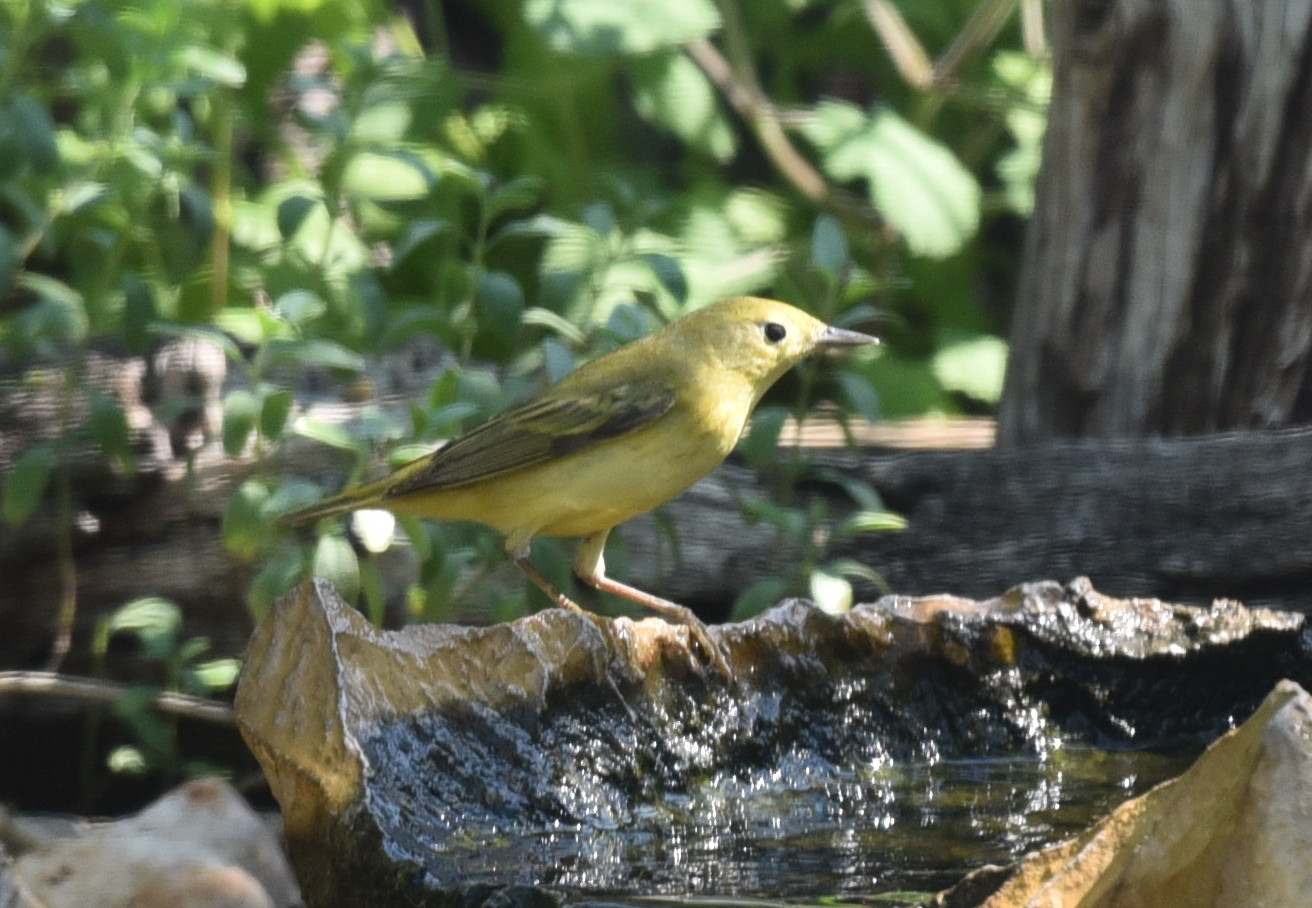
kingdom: Animalia
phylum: Chordata
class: Aves
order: Passeriformes
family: Parulidae
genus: Setophaga
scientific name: Setophaga petechia
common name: Yellow warbler
